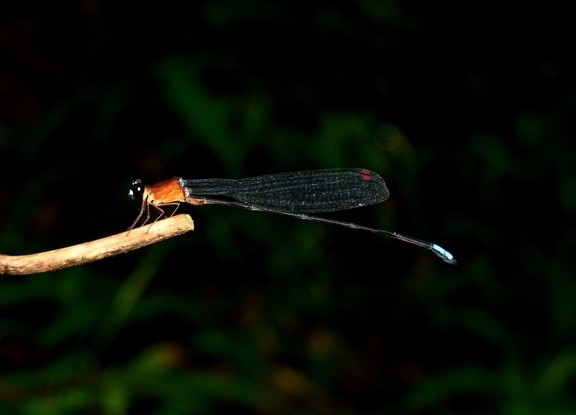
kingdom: Animalia
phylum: Arthropoda
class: Insecta
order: Odonata
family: Platystictidae
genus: Indosticta
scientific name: Indosticta deccanensis
